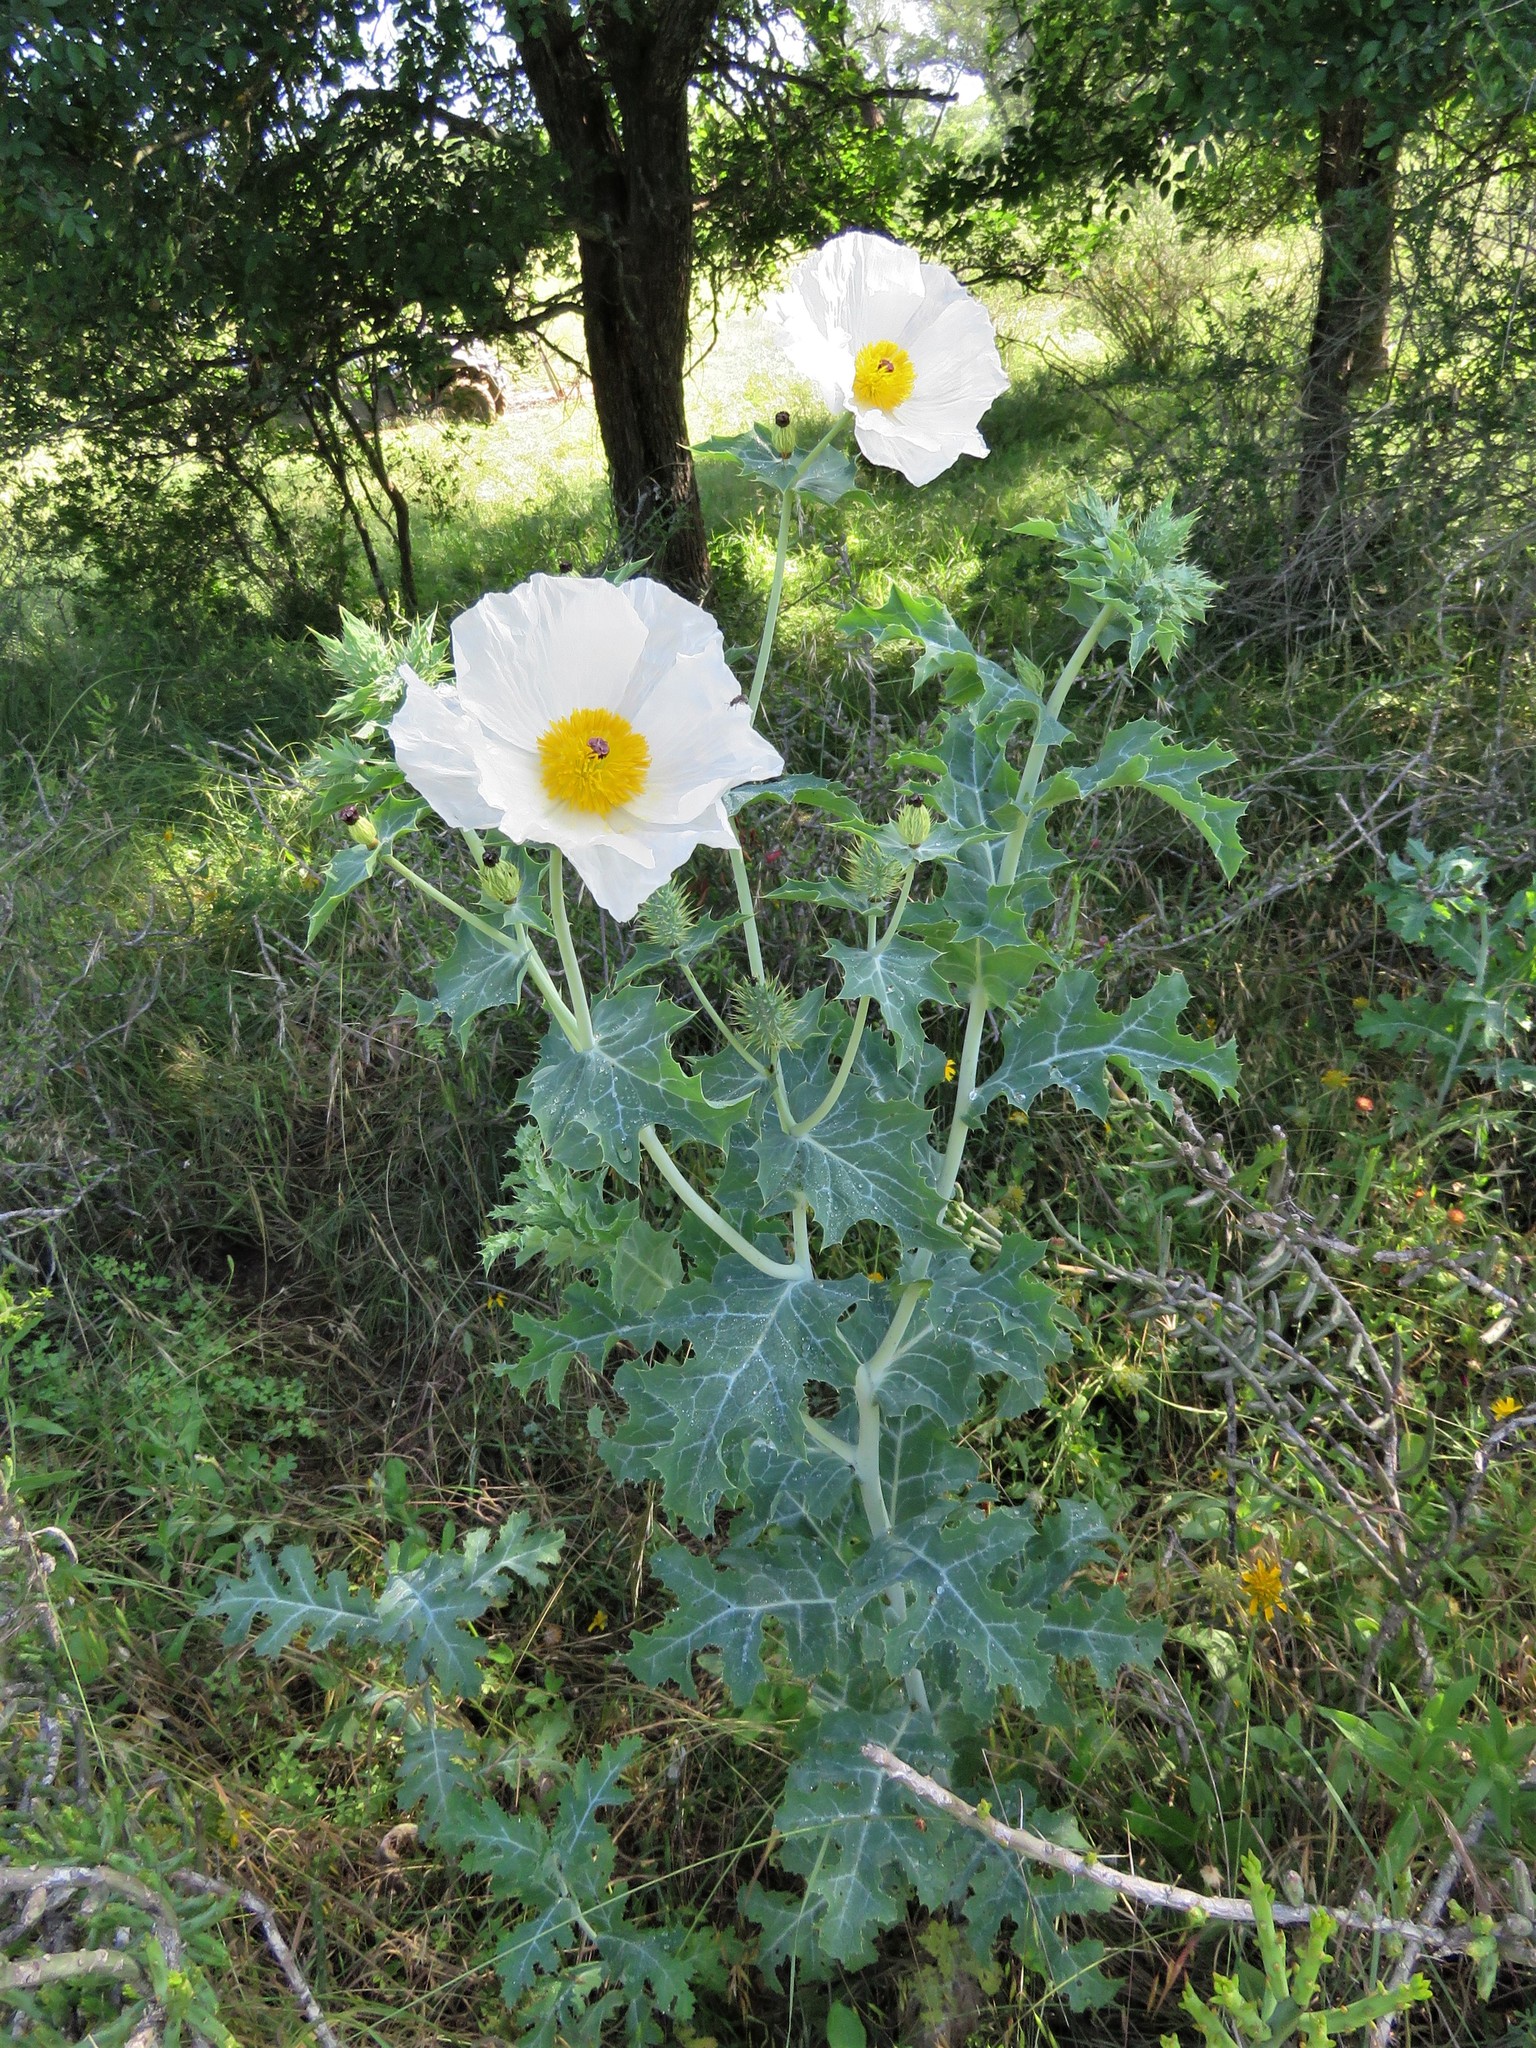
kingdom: Plantae
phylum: Tracheophyta
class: Magnoliopsida
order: Ranunculales
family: Papaveraceae
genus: Argemone
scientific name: Argemone albiflora
